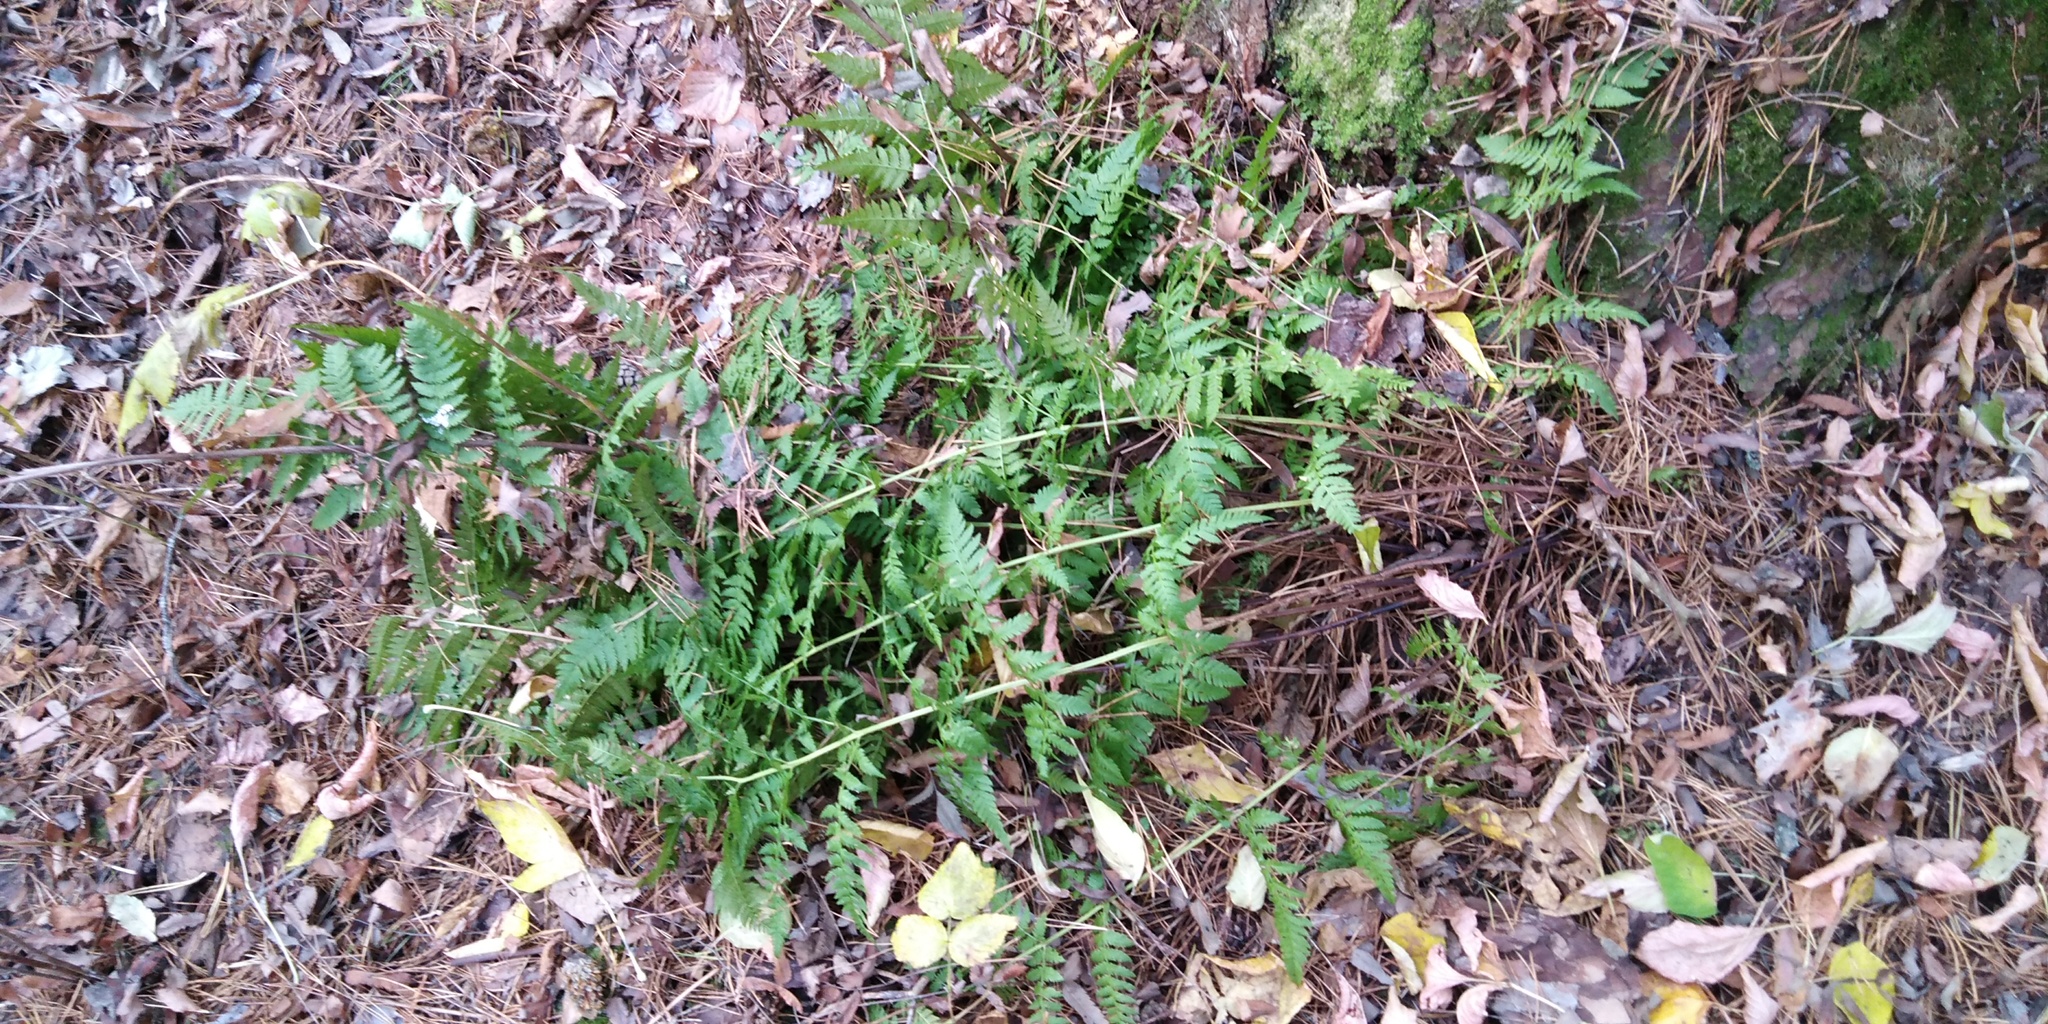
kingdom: Plantae
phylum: Tracheophyta
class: Polypodiopsida
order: Polypodiales
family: Dryopteridaceae
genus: Dryopteris
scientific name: Dryopteris carthusiana
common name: Narrow buckler-fern
